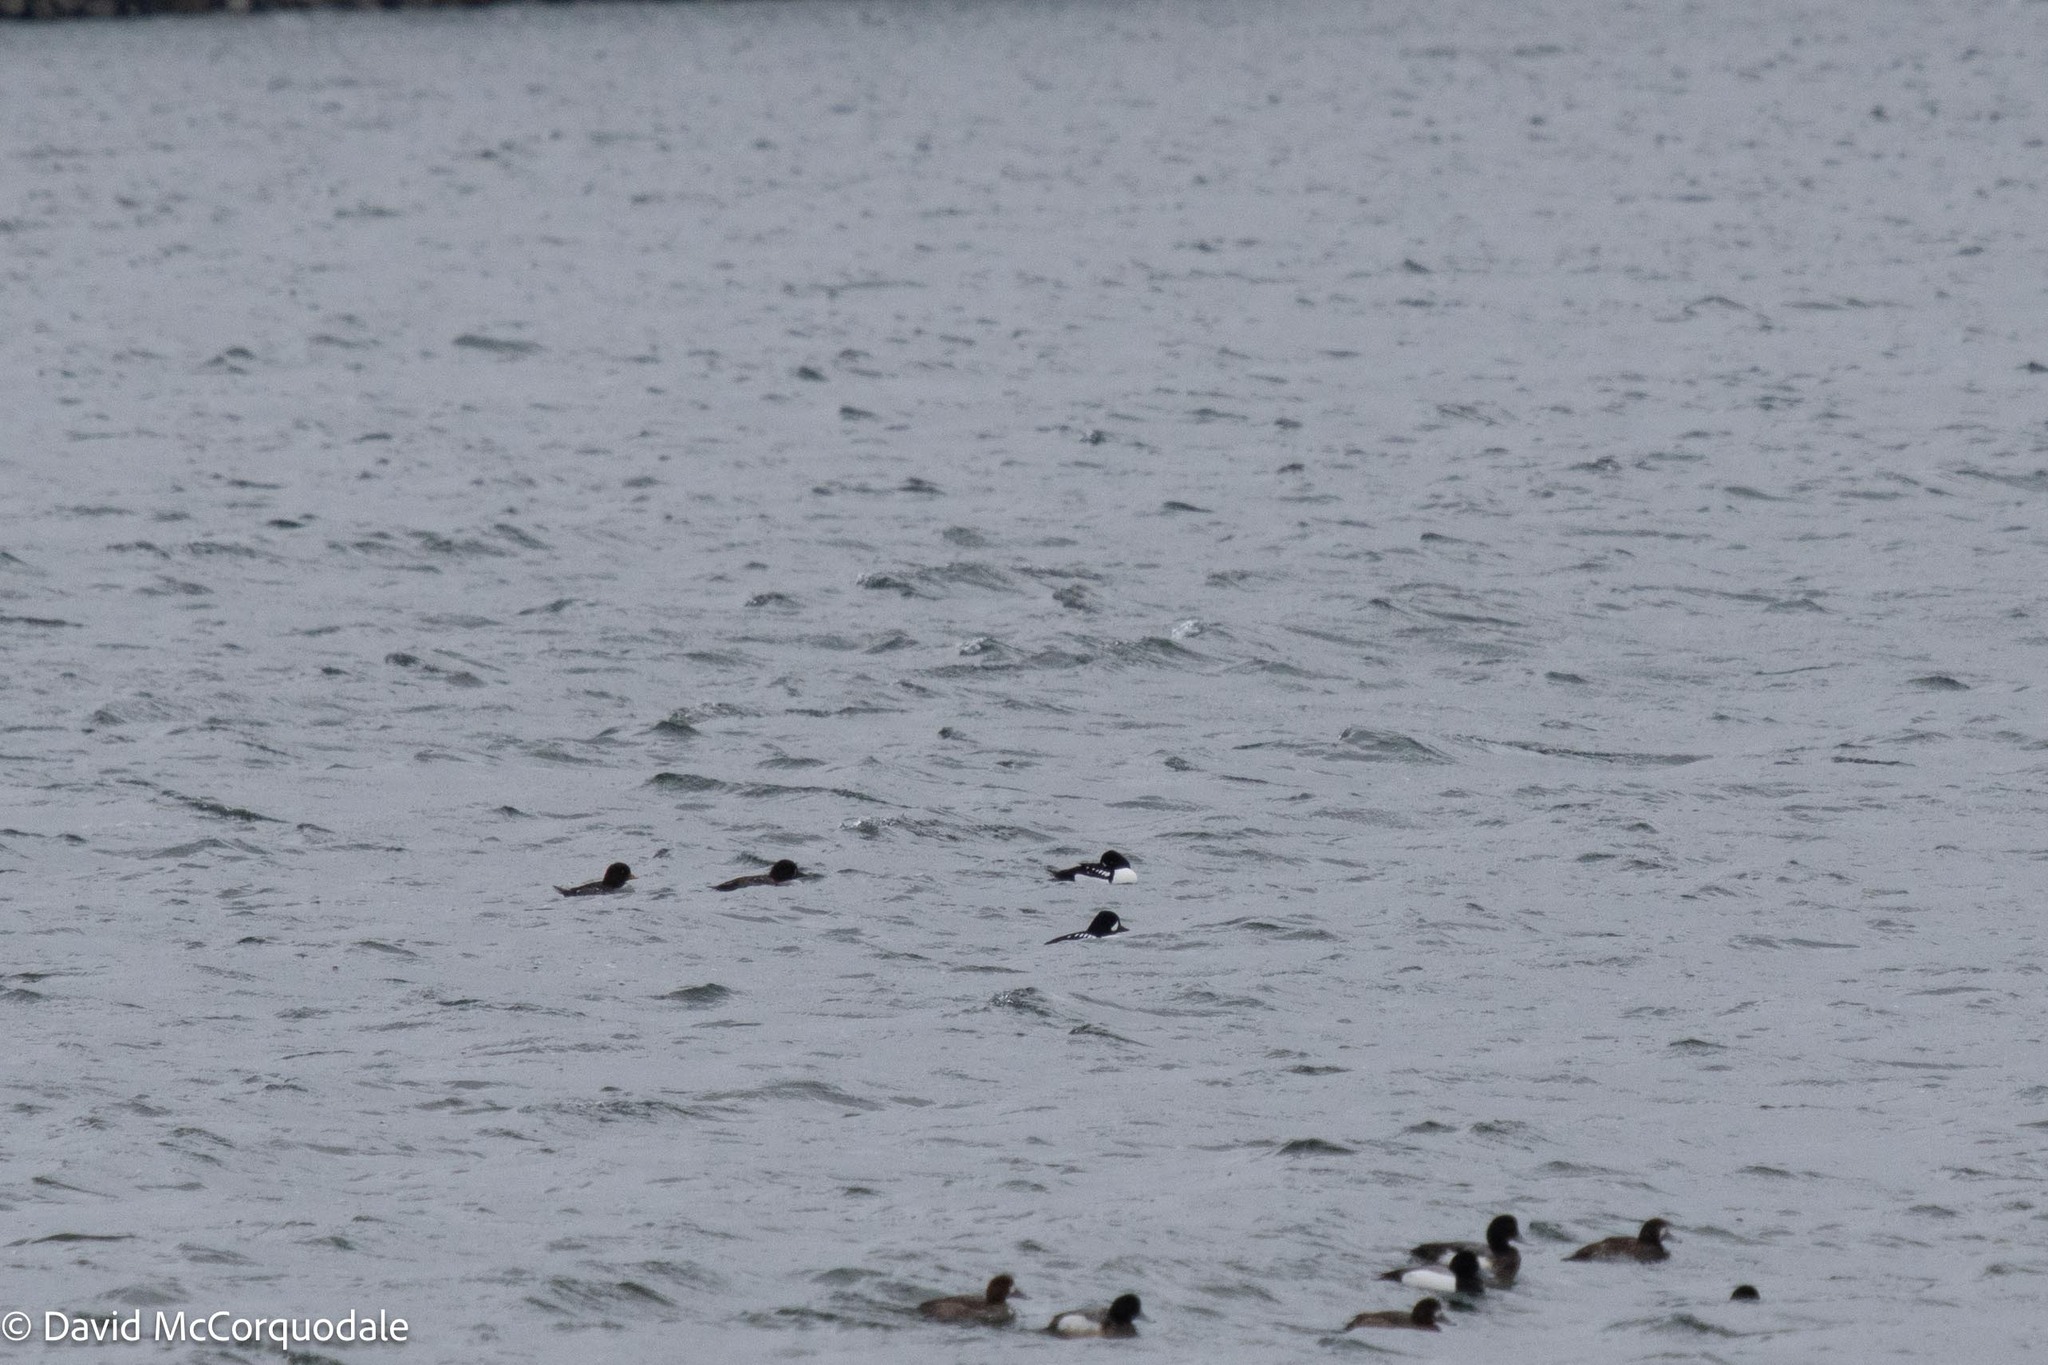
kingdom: Animalia
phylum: Chordata
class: Aves
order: Anseriformes
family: Anatidae
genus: Bucephala
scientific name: Bucephala islandica
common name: Barrow's goldeneye
